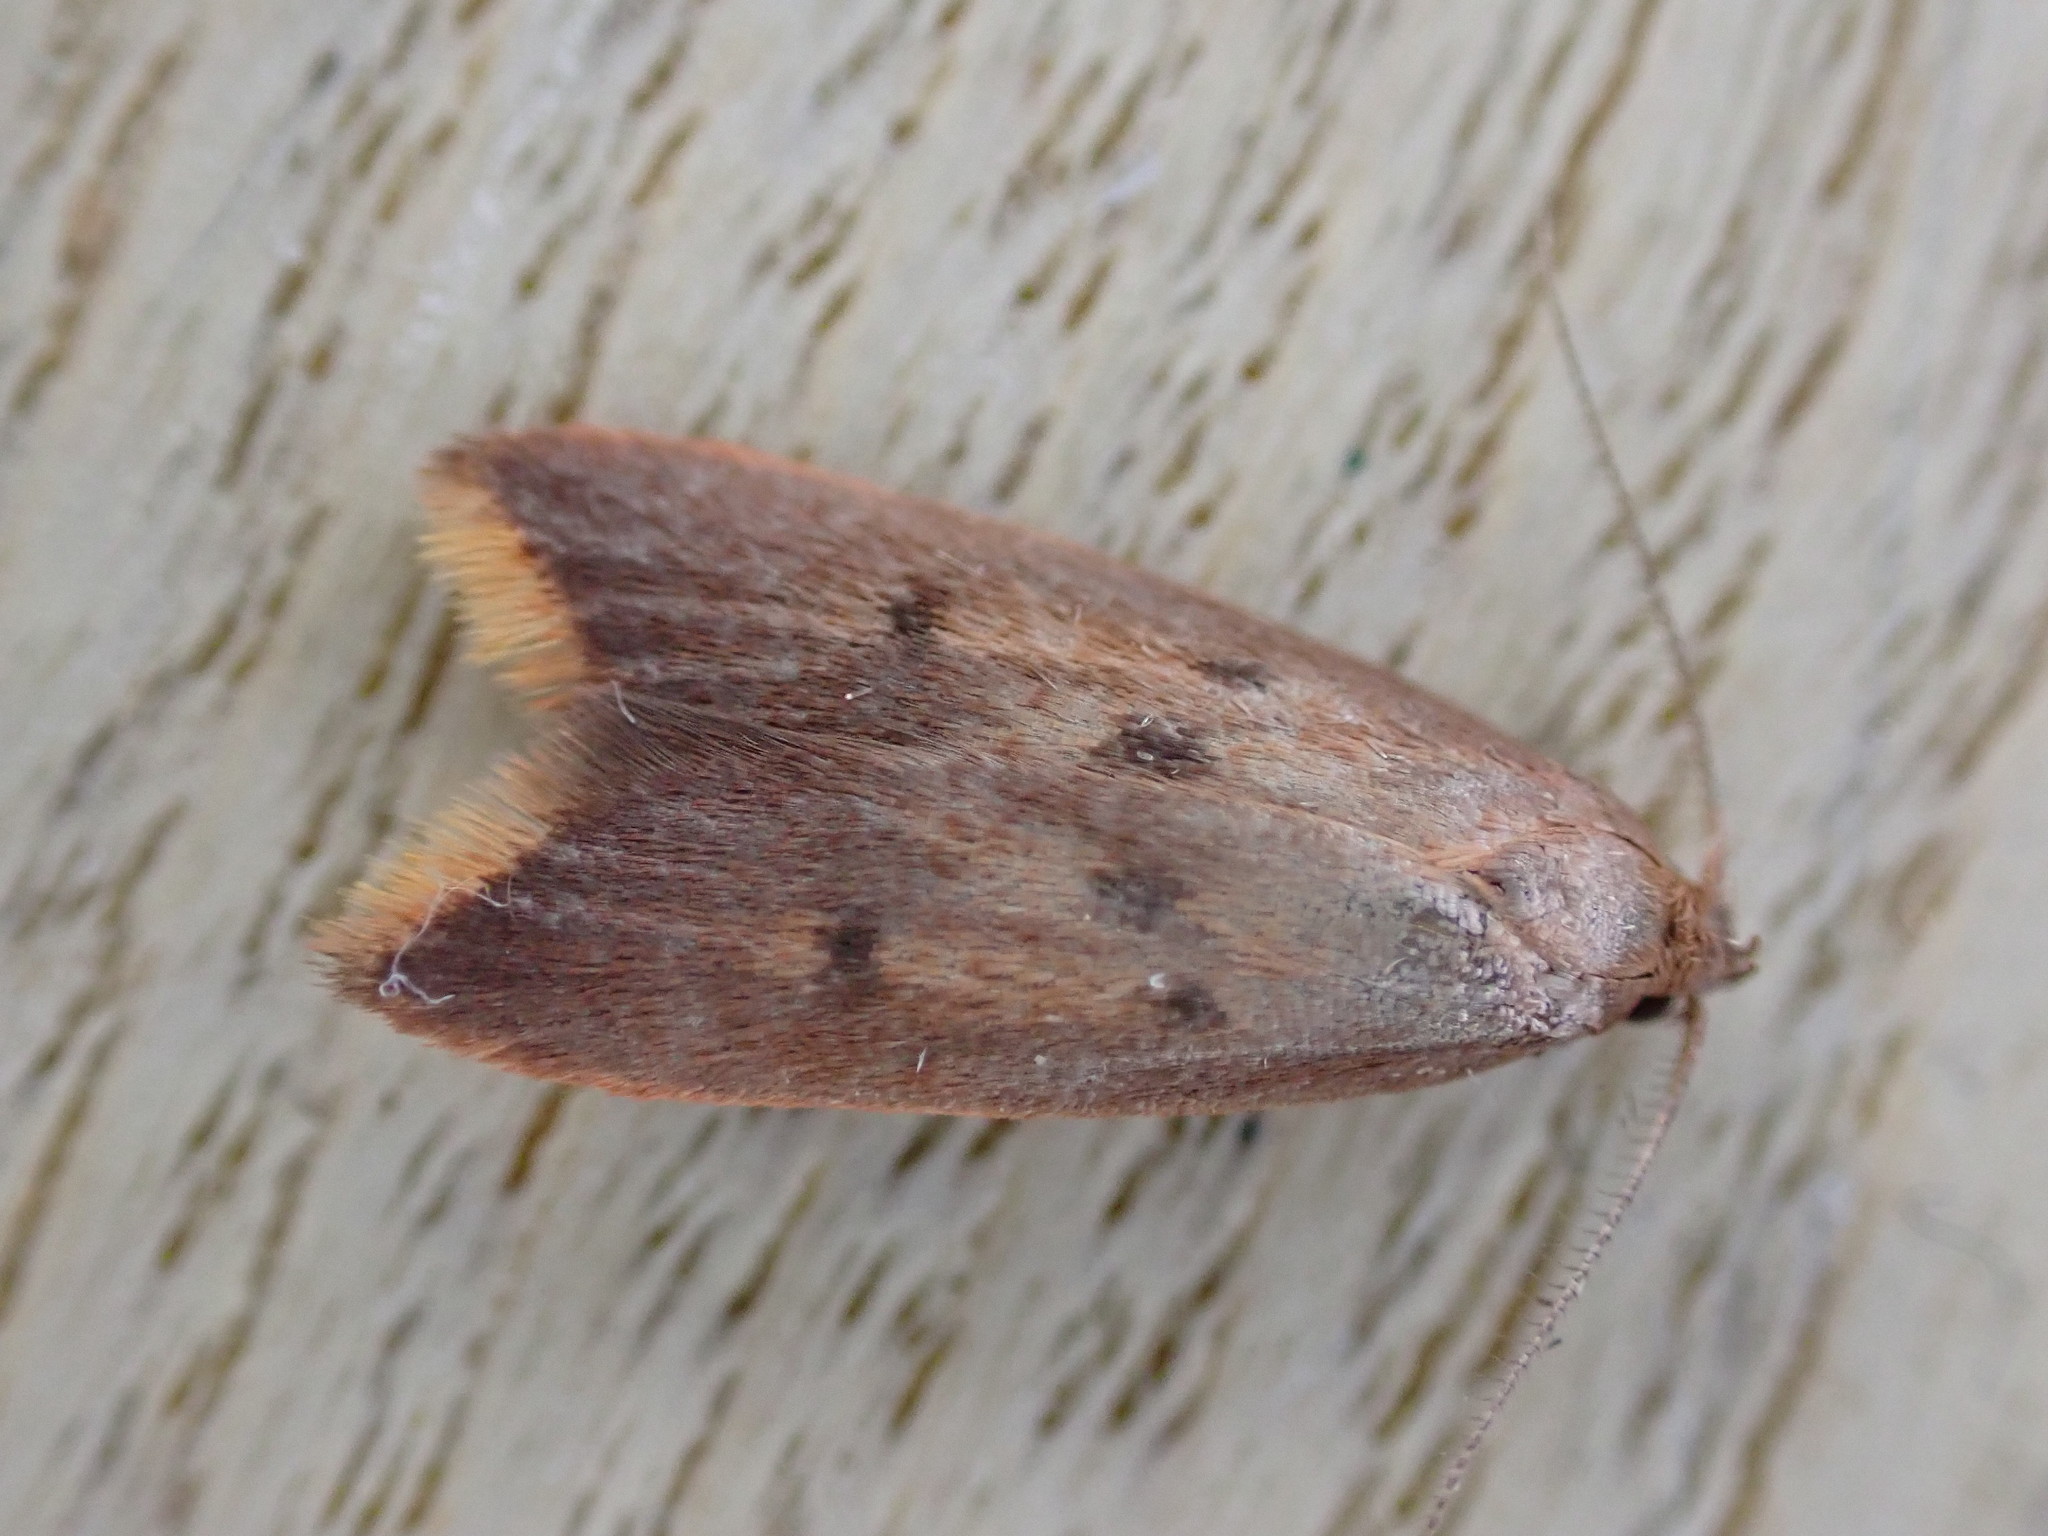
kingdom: Animalia
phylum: Arthropoda
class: Insecta
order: Lepidoptera
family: Oecophoridae
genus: Tachystola
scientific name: Tachystola acroxantha
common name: Ruddy streak
